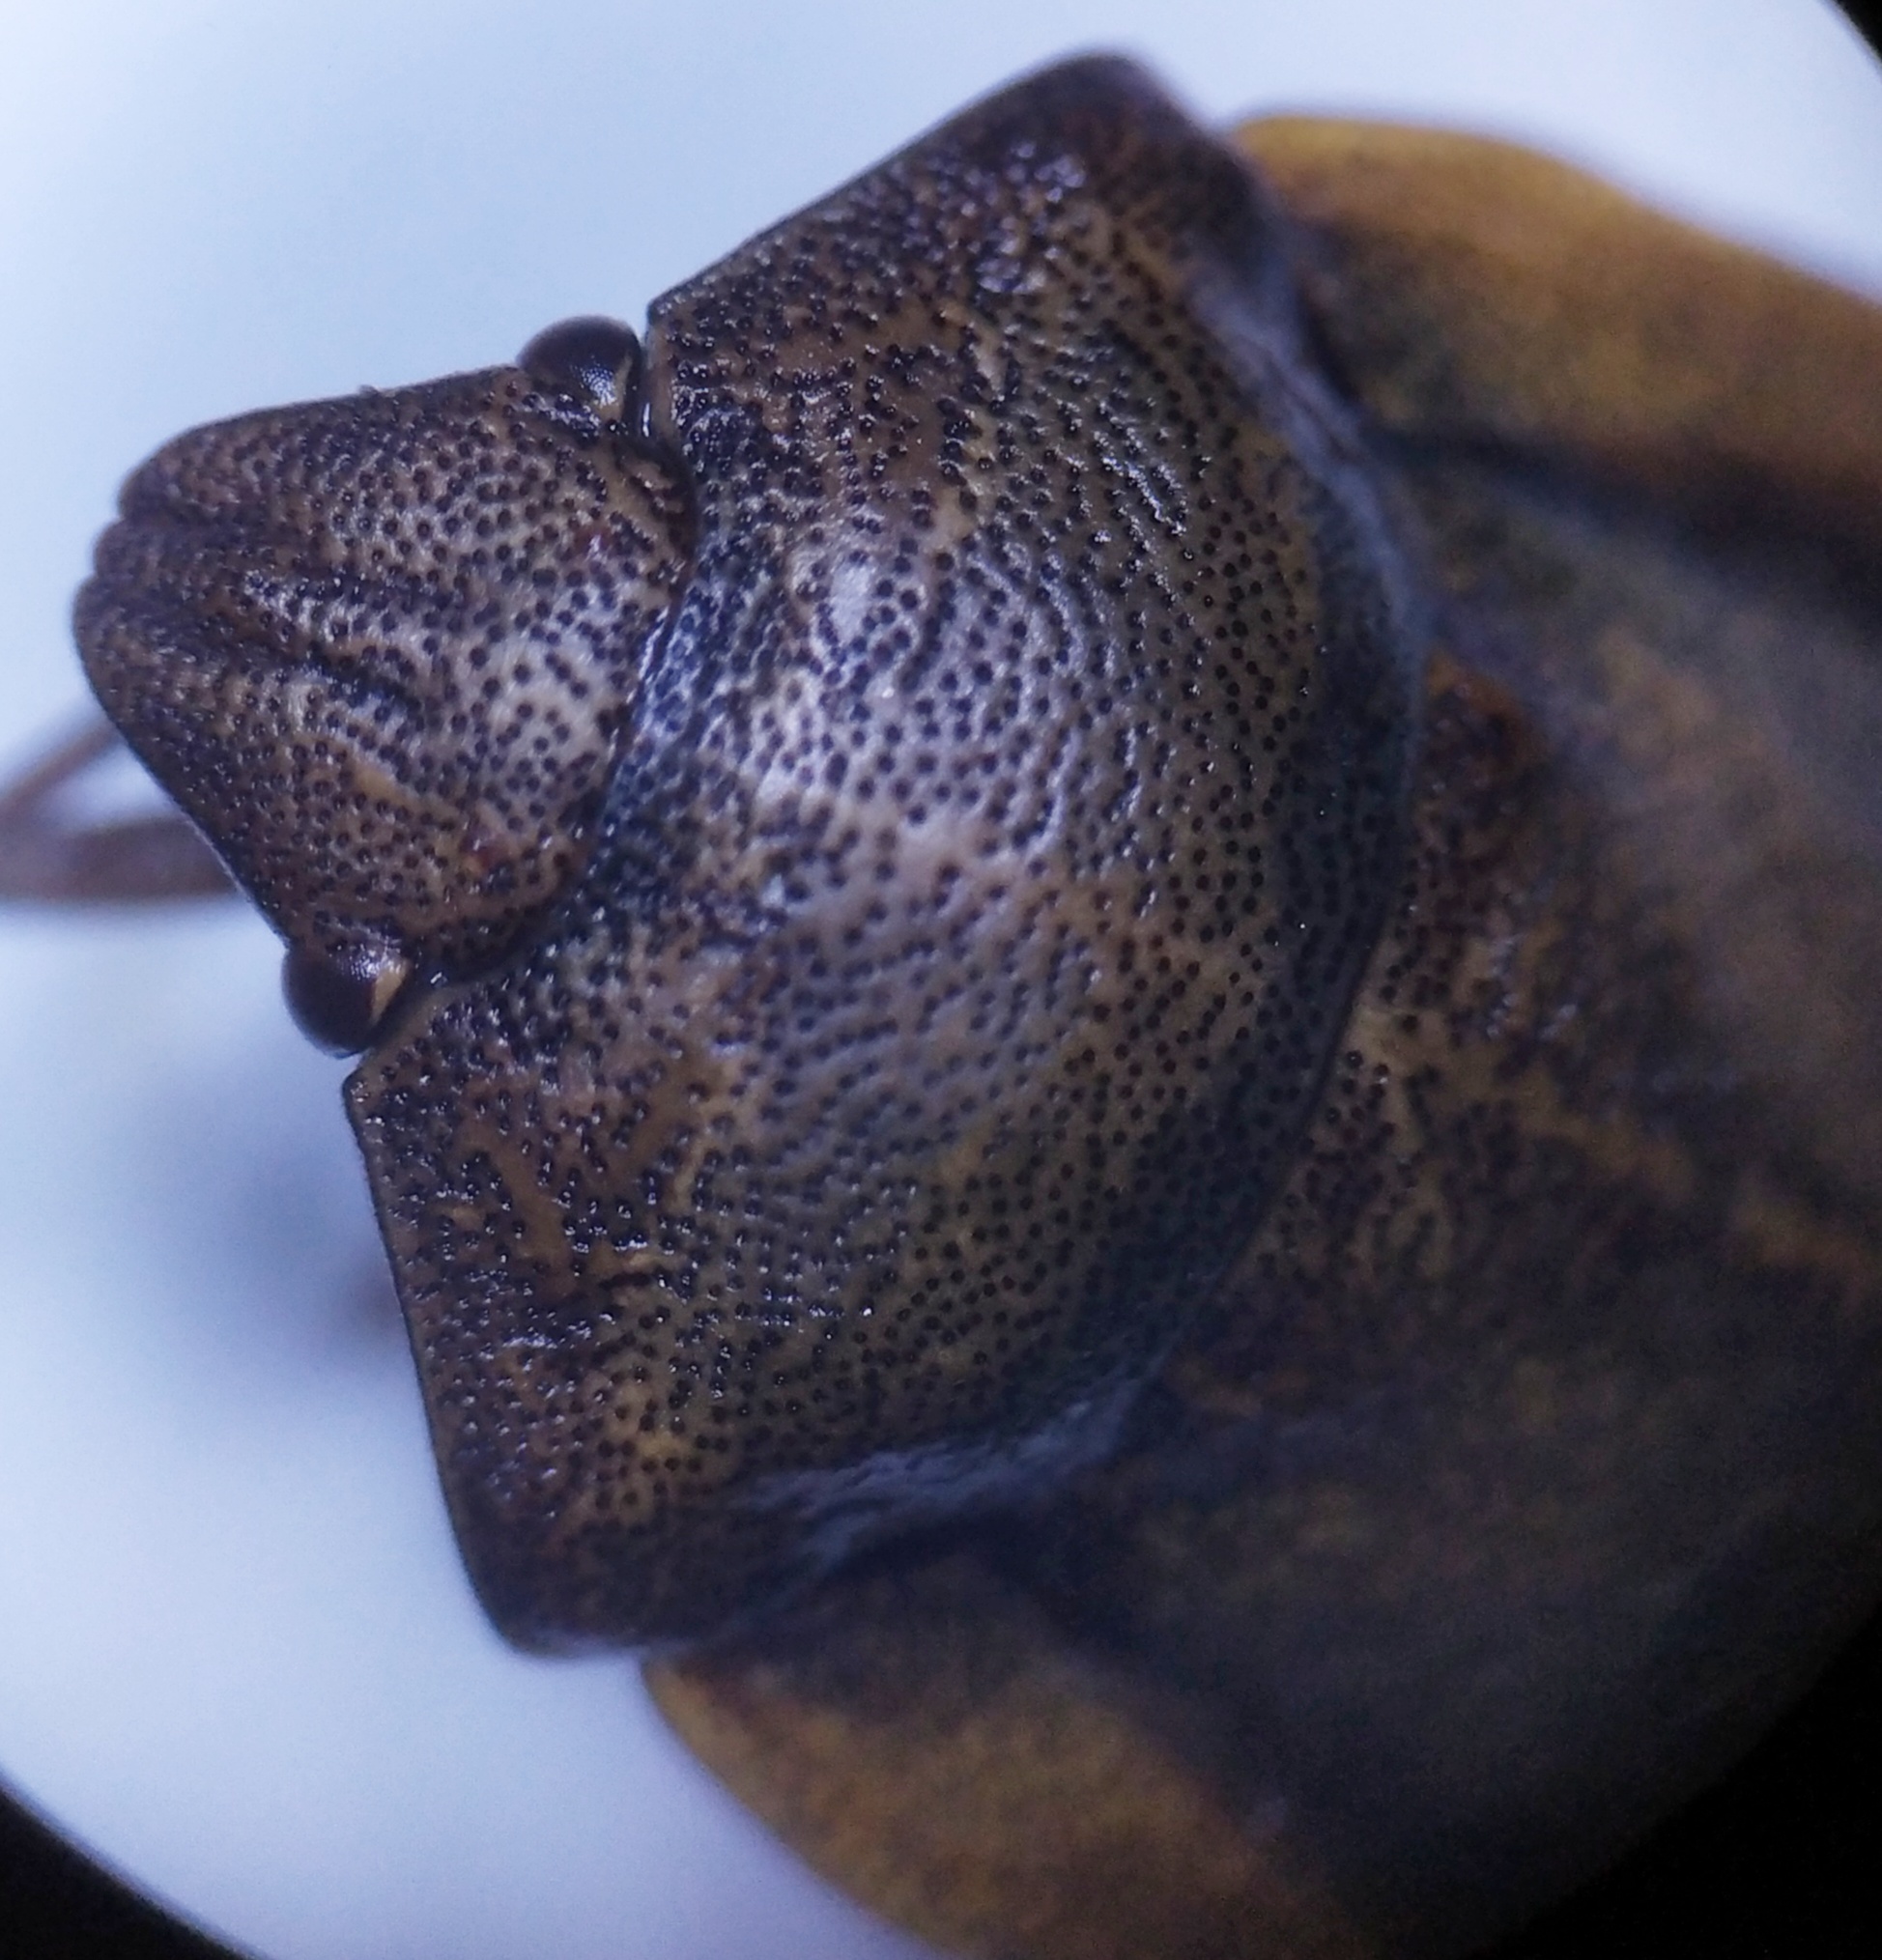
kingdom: Animalia
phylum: Arthropoda
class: Insecta
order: Hemiptera
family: Scutelleridae
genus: Eurygaster
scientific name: Eurygaster testudinaria
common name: Tortoise bug
